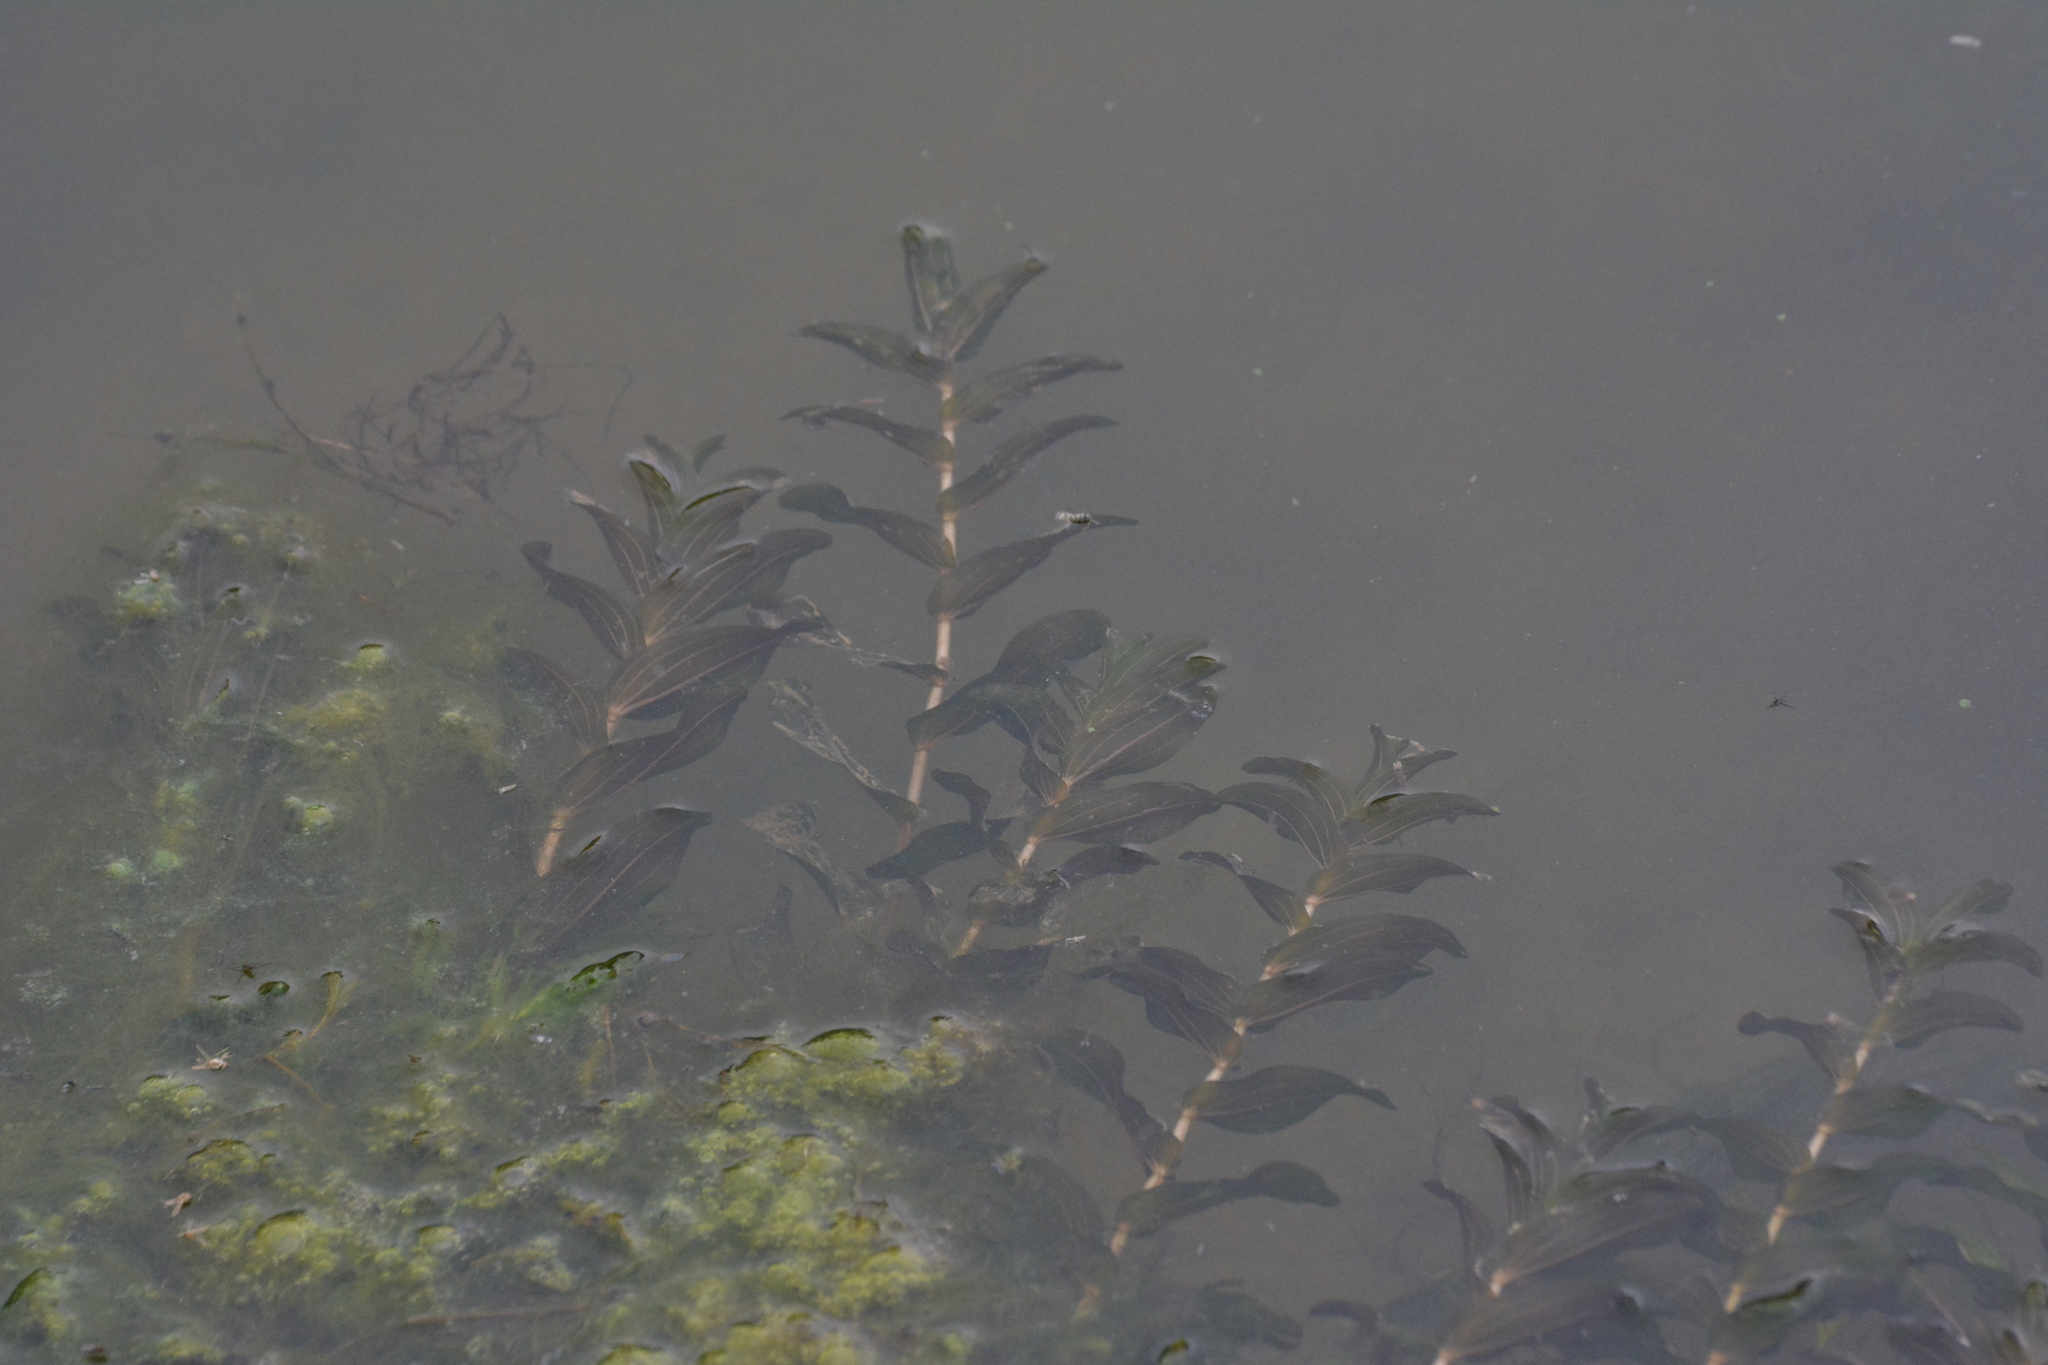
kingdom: Plantae
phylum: Tracheophyta
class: Liliopsida
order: Alismatales
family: Potamogetonaceae
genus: Potamogeton
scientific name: Potamogeton perfoliatus
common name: Perfoliate pondweed
